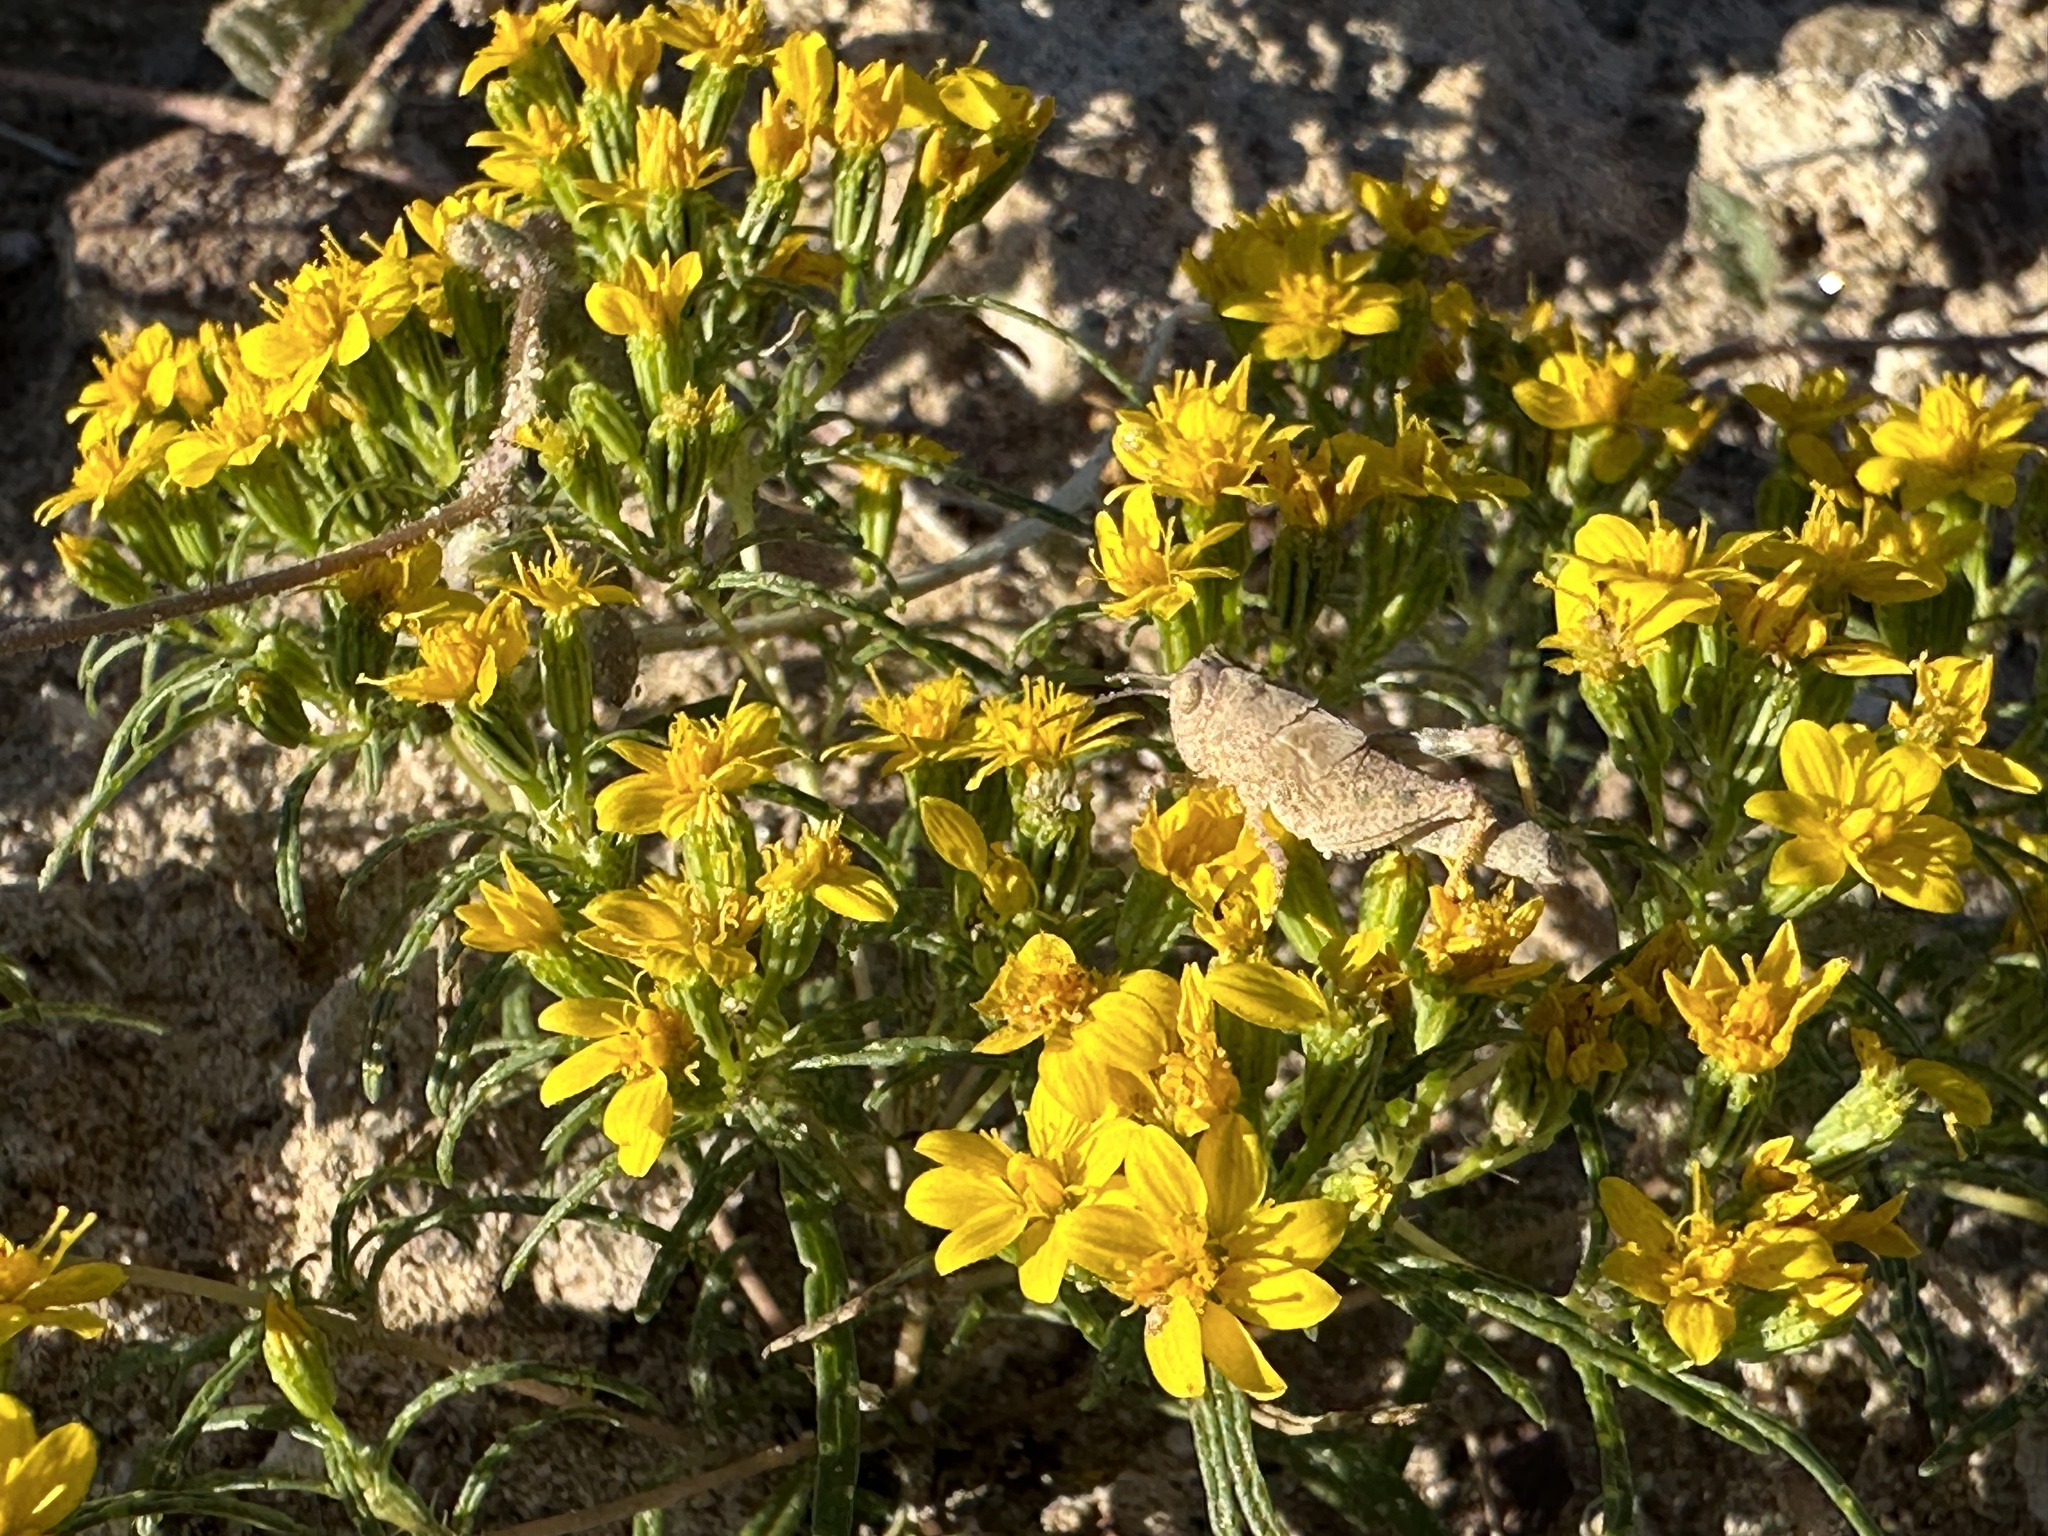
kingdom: Plantae
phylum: Tracheophyta
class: Magnoliopsida
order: Asterales
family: Asteraceae
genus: Pectis
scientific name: Pectis papposa
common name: Many-bristle chinchweed
